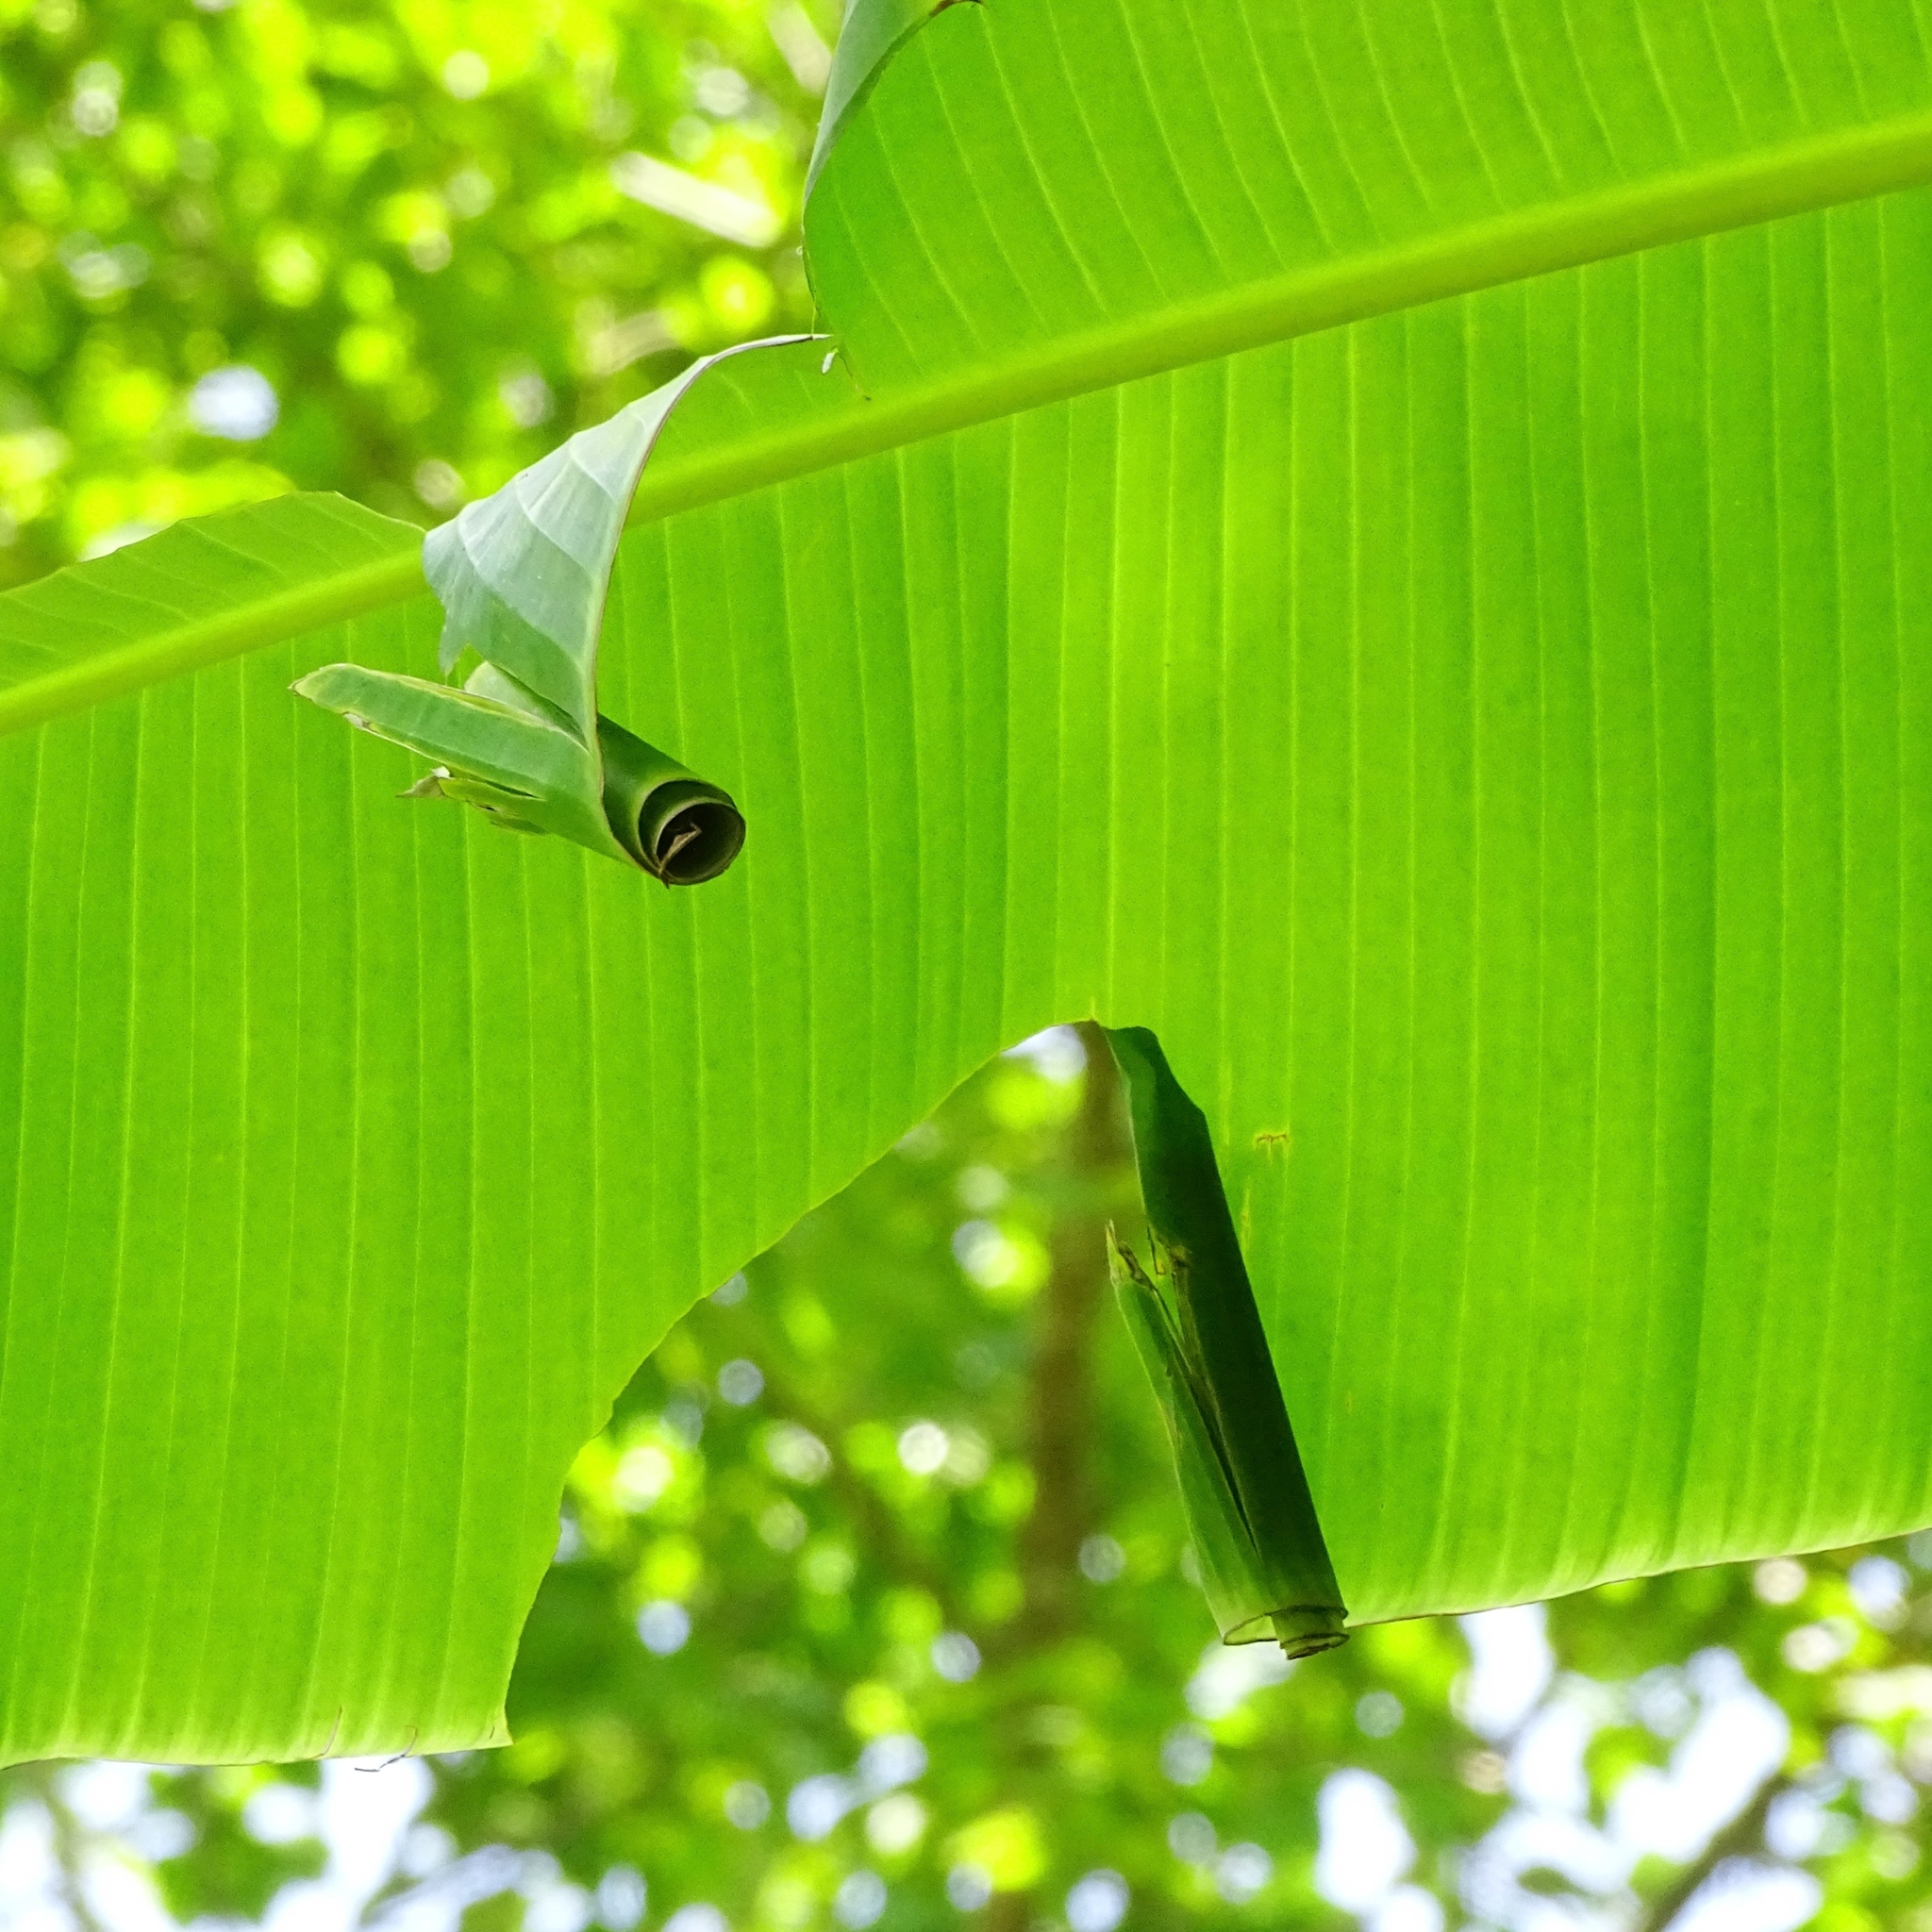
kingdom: Animalia
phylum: Arthropoda
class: Insecta
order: Lepidoptera
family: Hesperiidae
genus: Erionota
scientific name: Erionota torus
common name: Rounded palm-redeye
